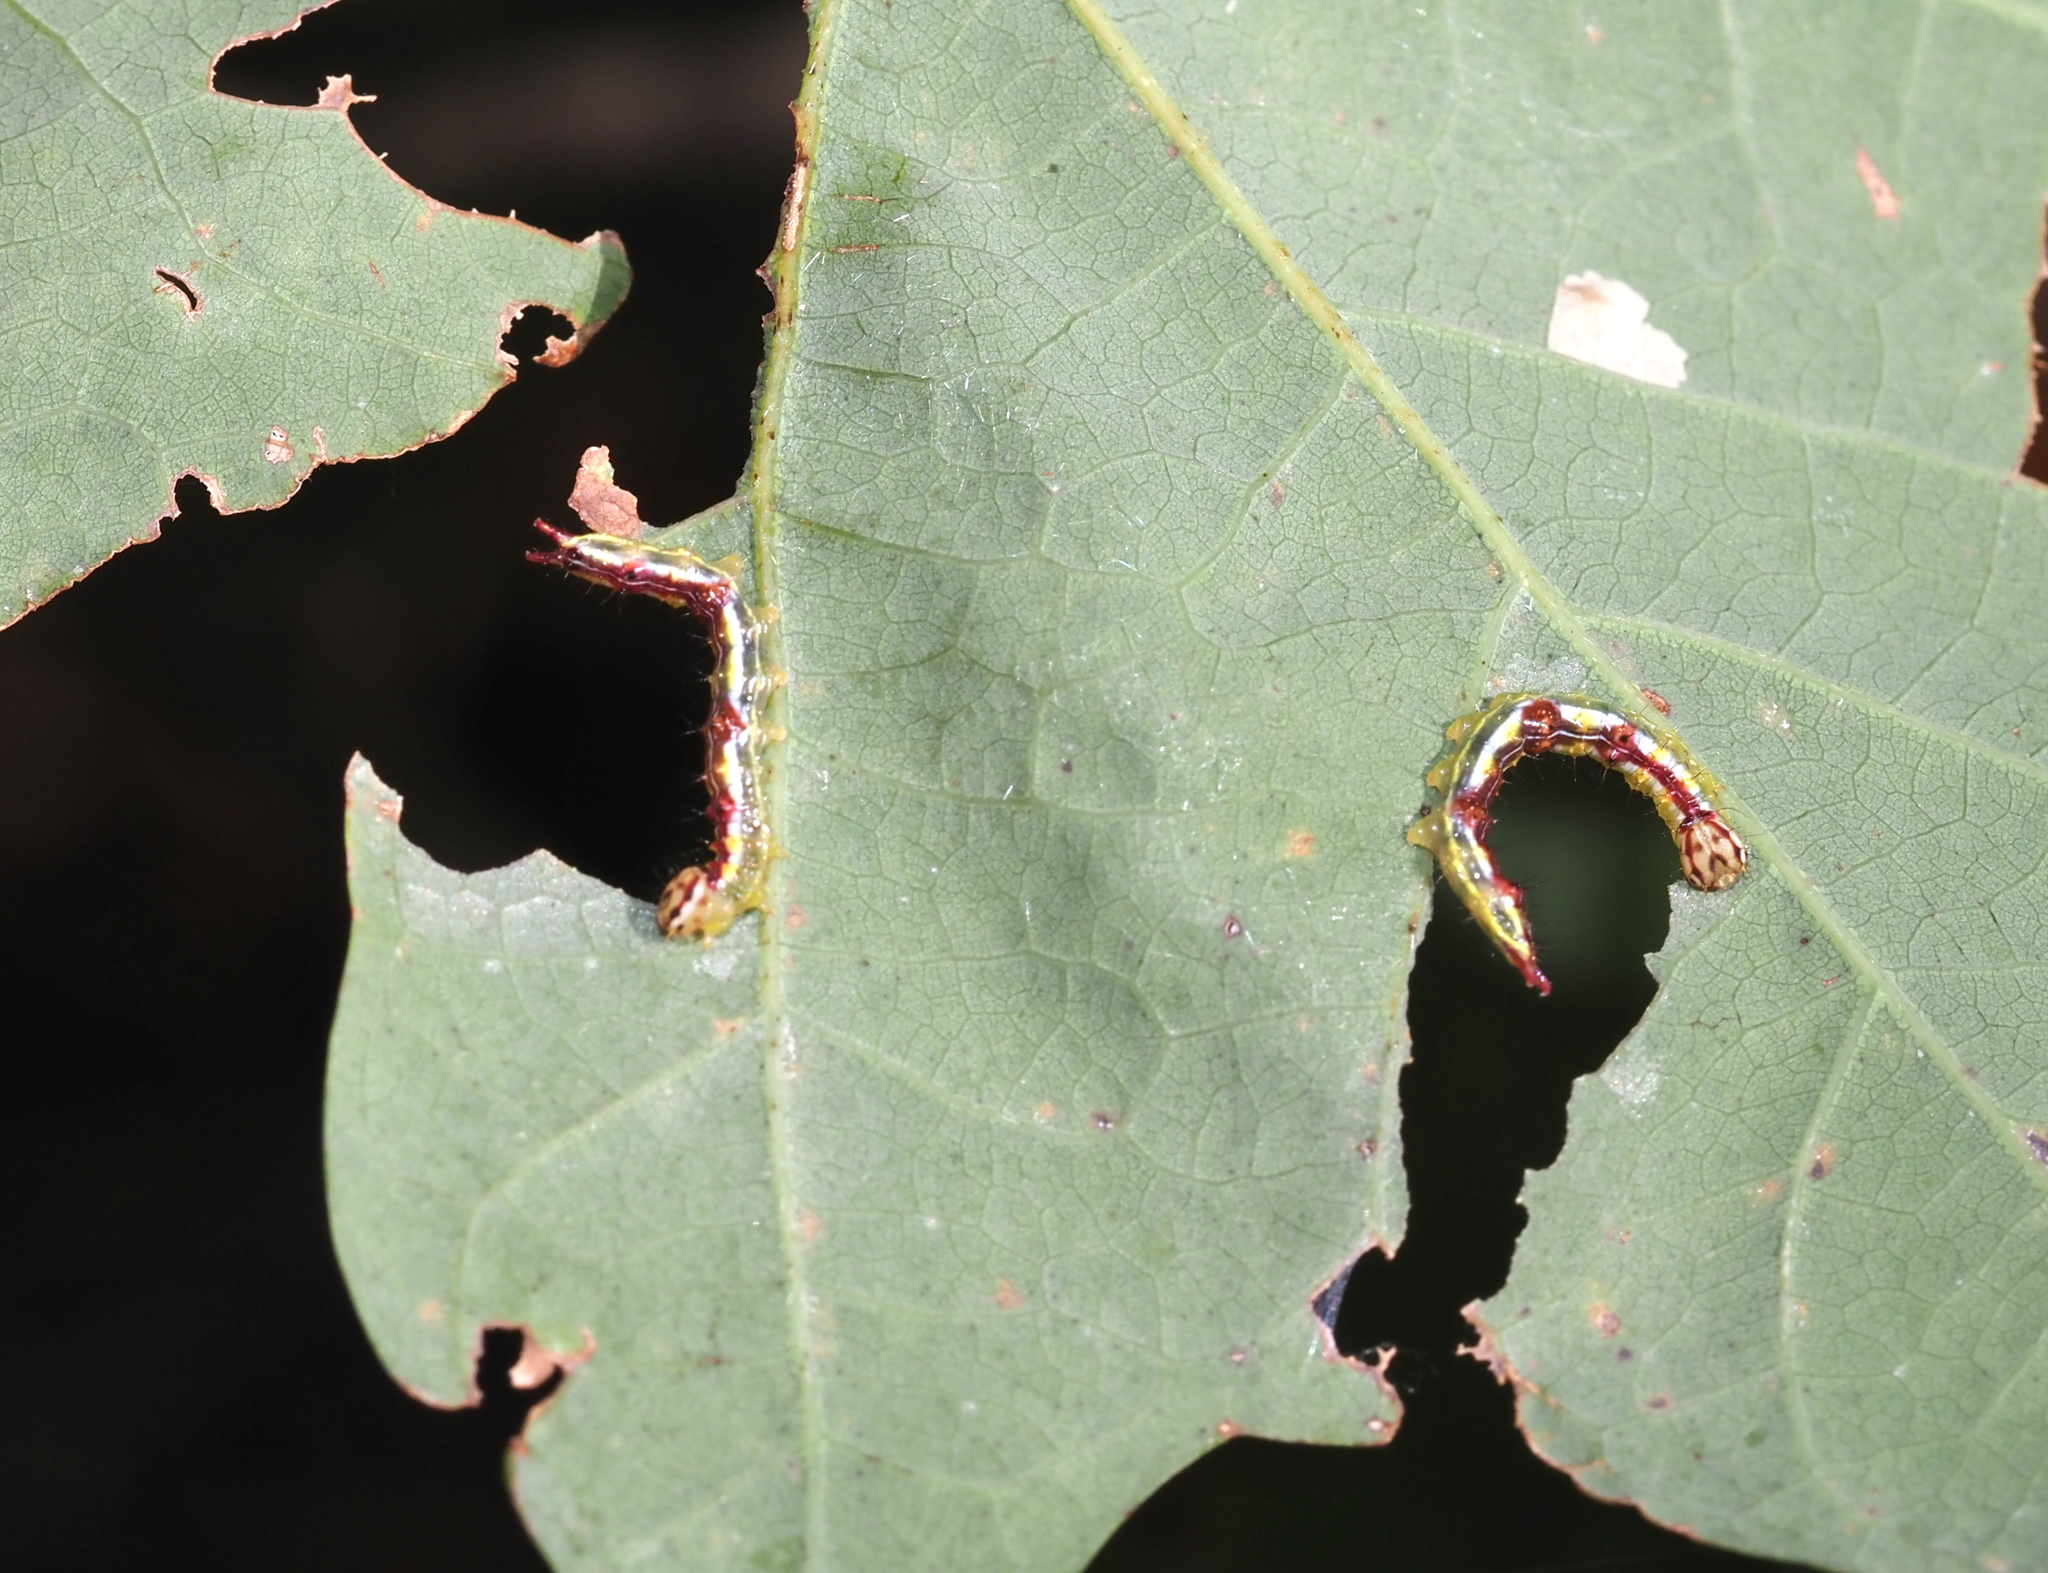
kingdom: Animalia
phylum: Arthropoda
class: Insecta
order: Lepidoptera
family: Notodontidae
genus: Lochmaeus
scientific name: Lochmaeus manteo
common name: Variable oakleaf caterpillar moth
